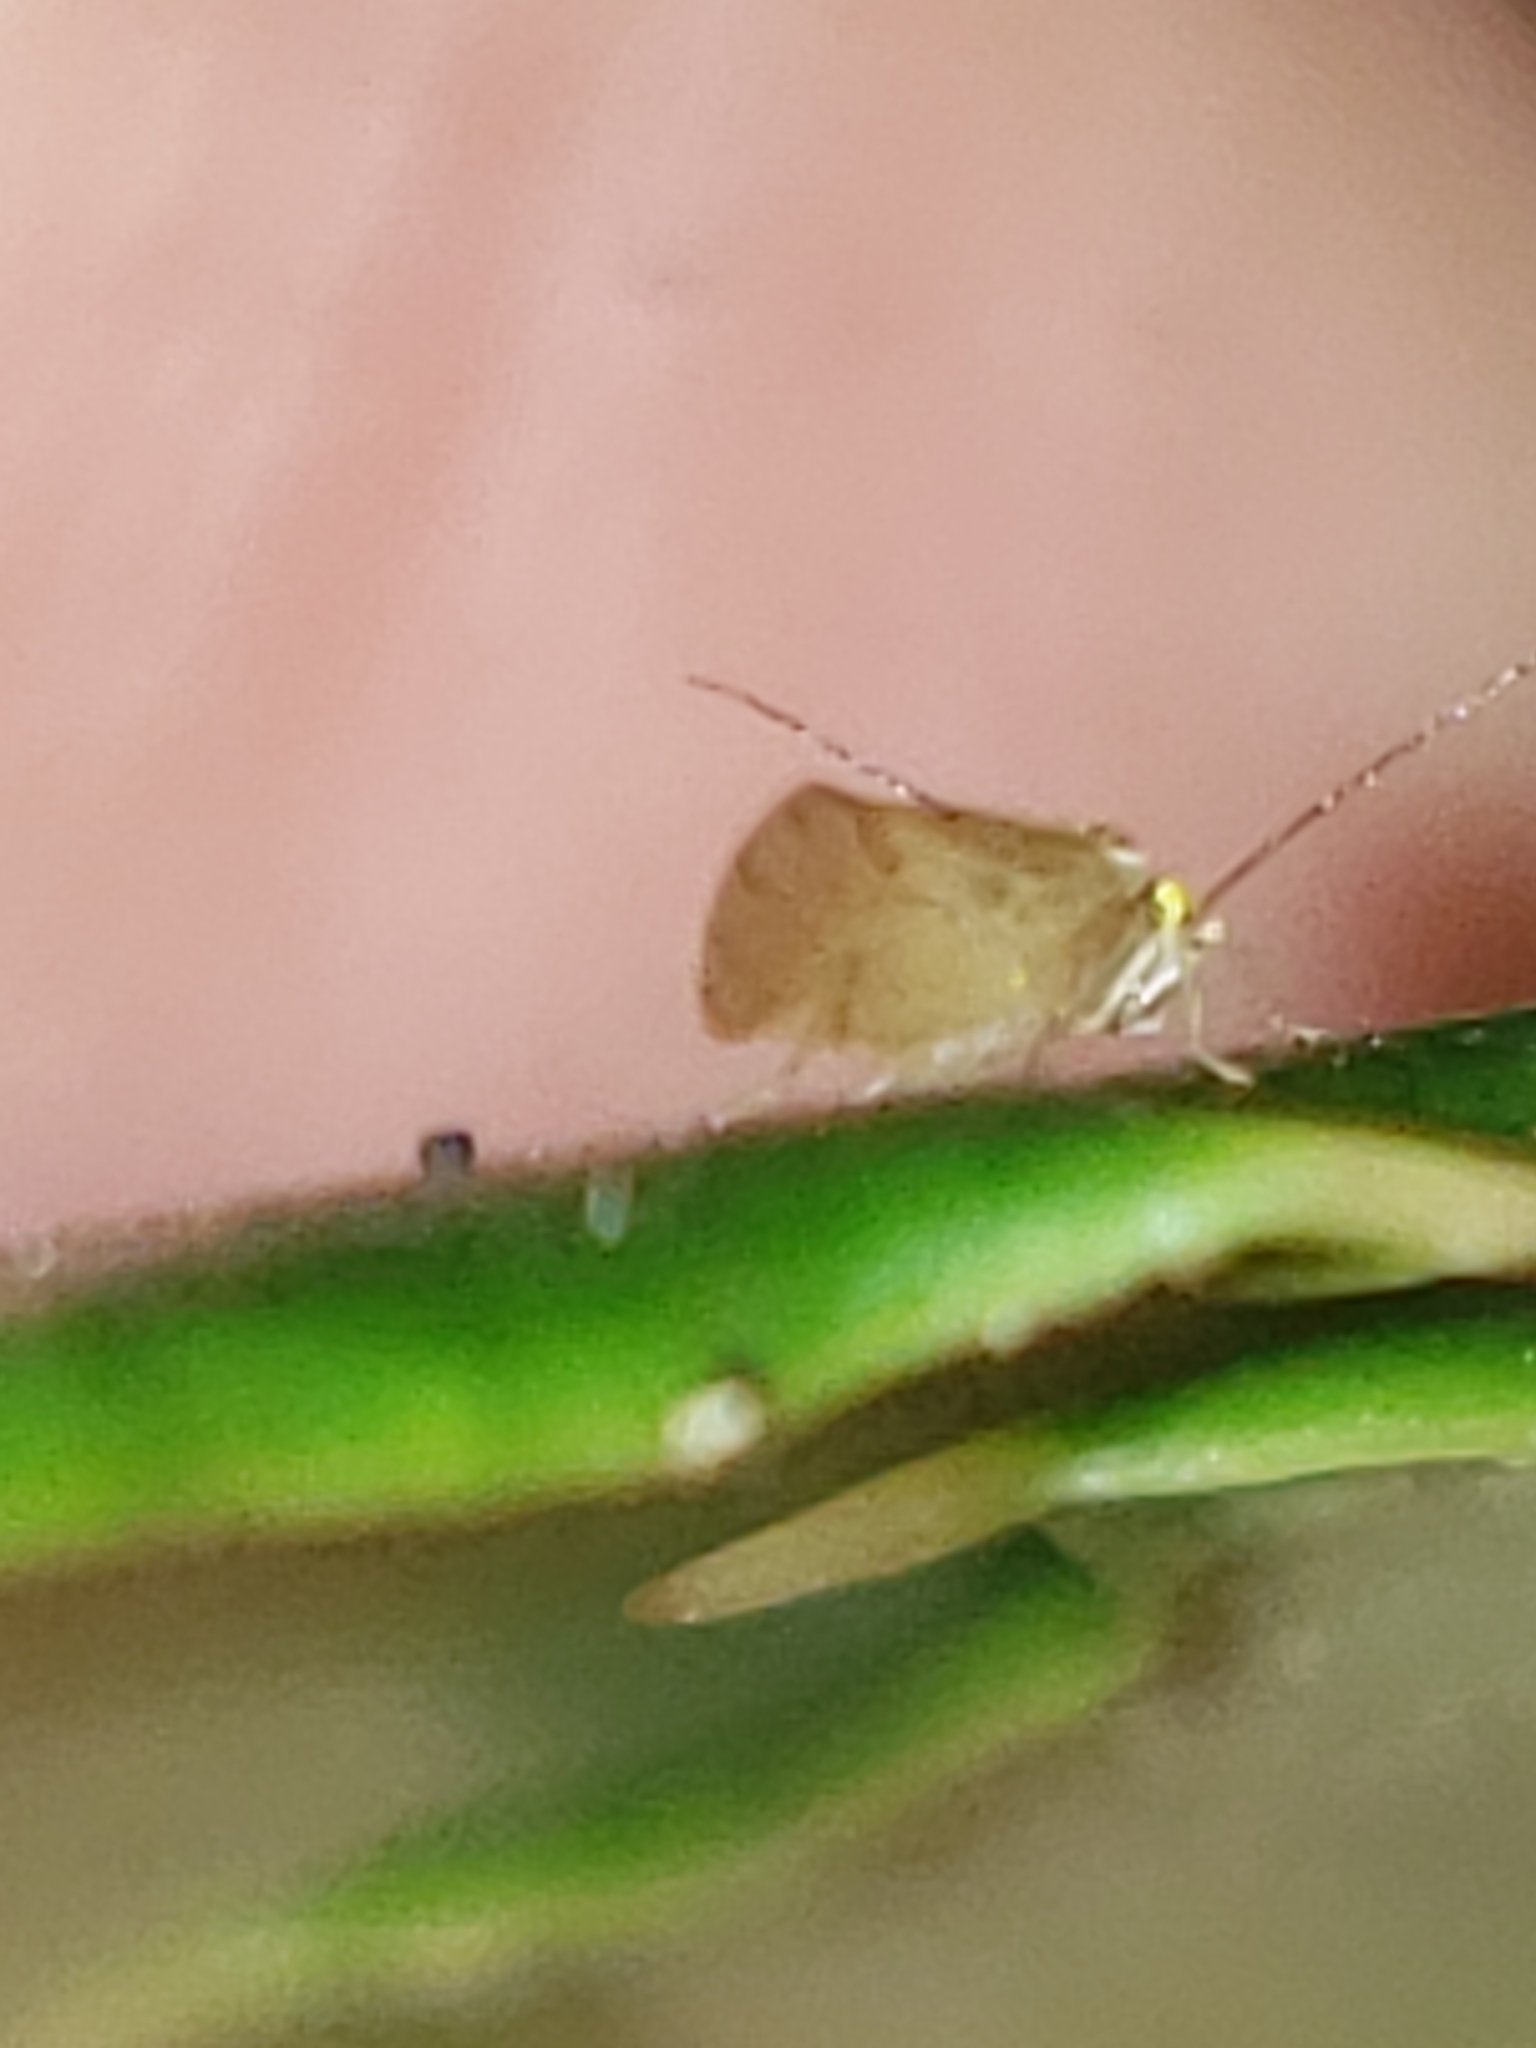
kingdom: Animalia
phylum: Arthropoda
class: Insecta
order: Psocodea
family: Paracaeciliidae
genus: Xanthocaecilius
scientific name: Xanthocaecilius sommermanae
